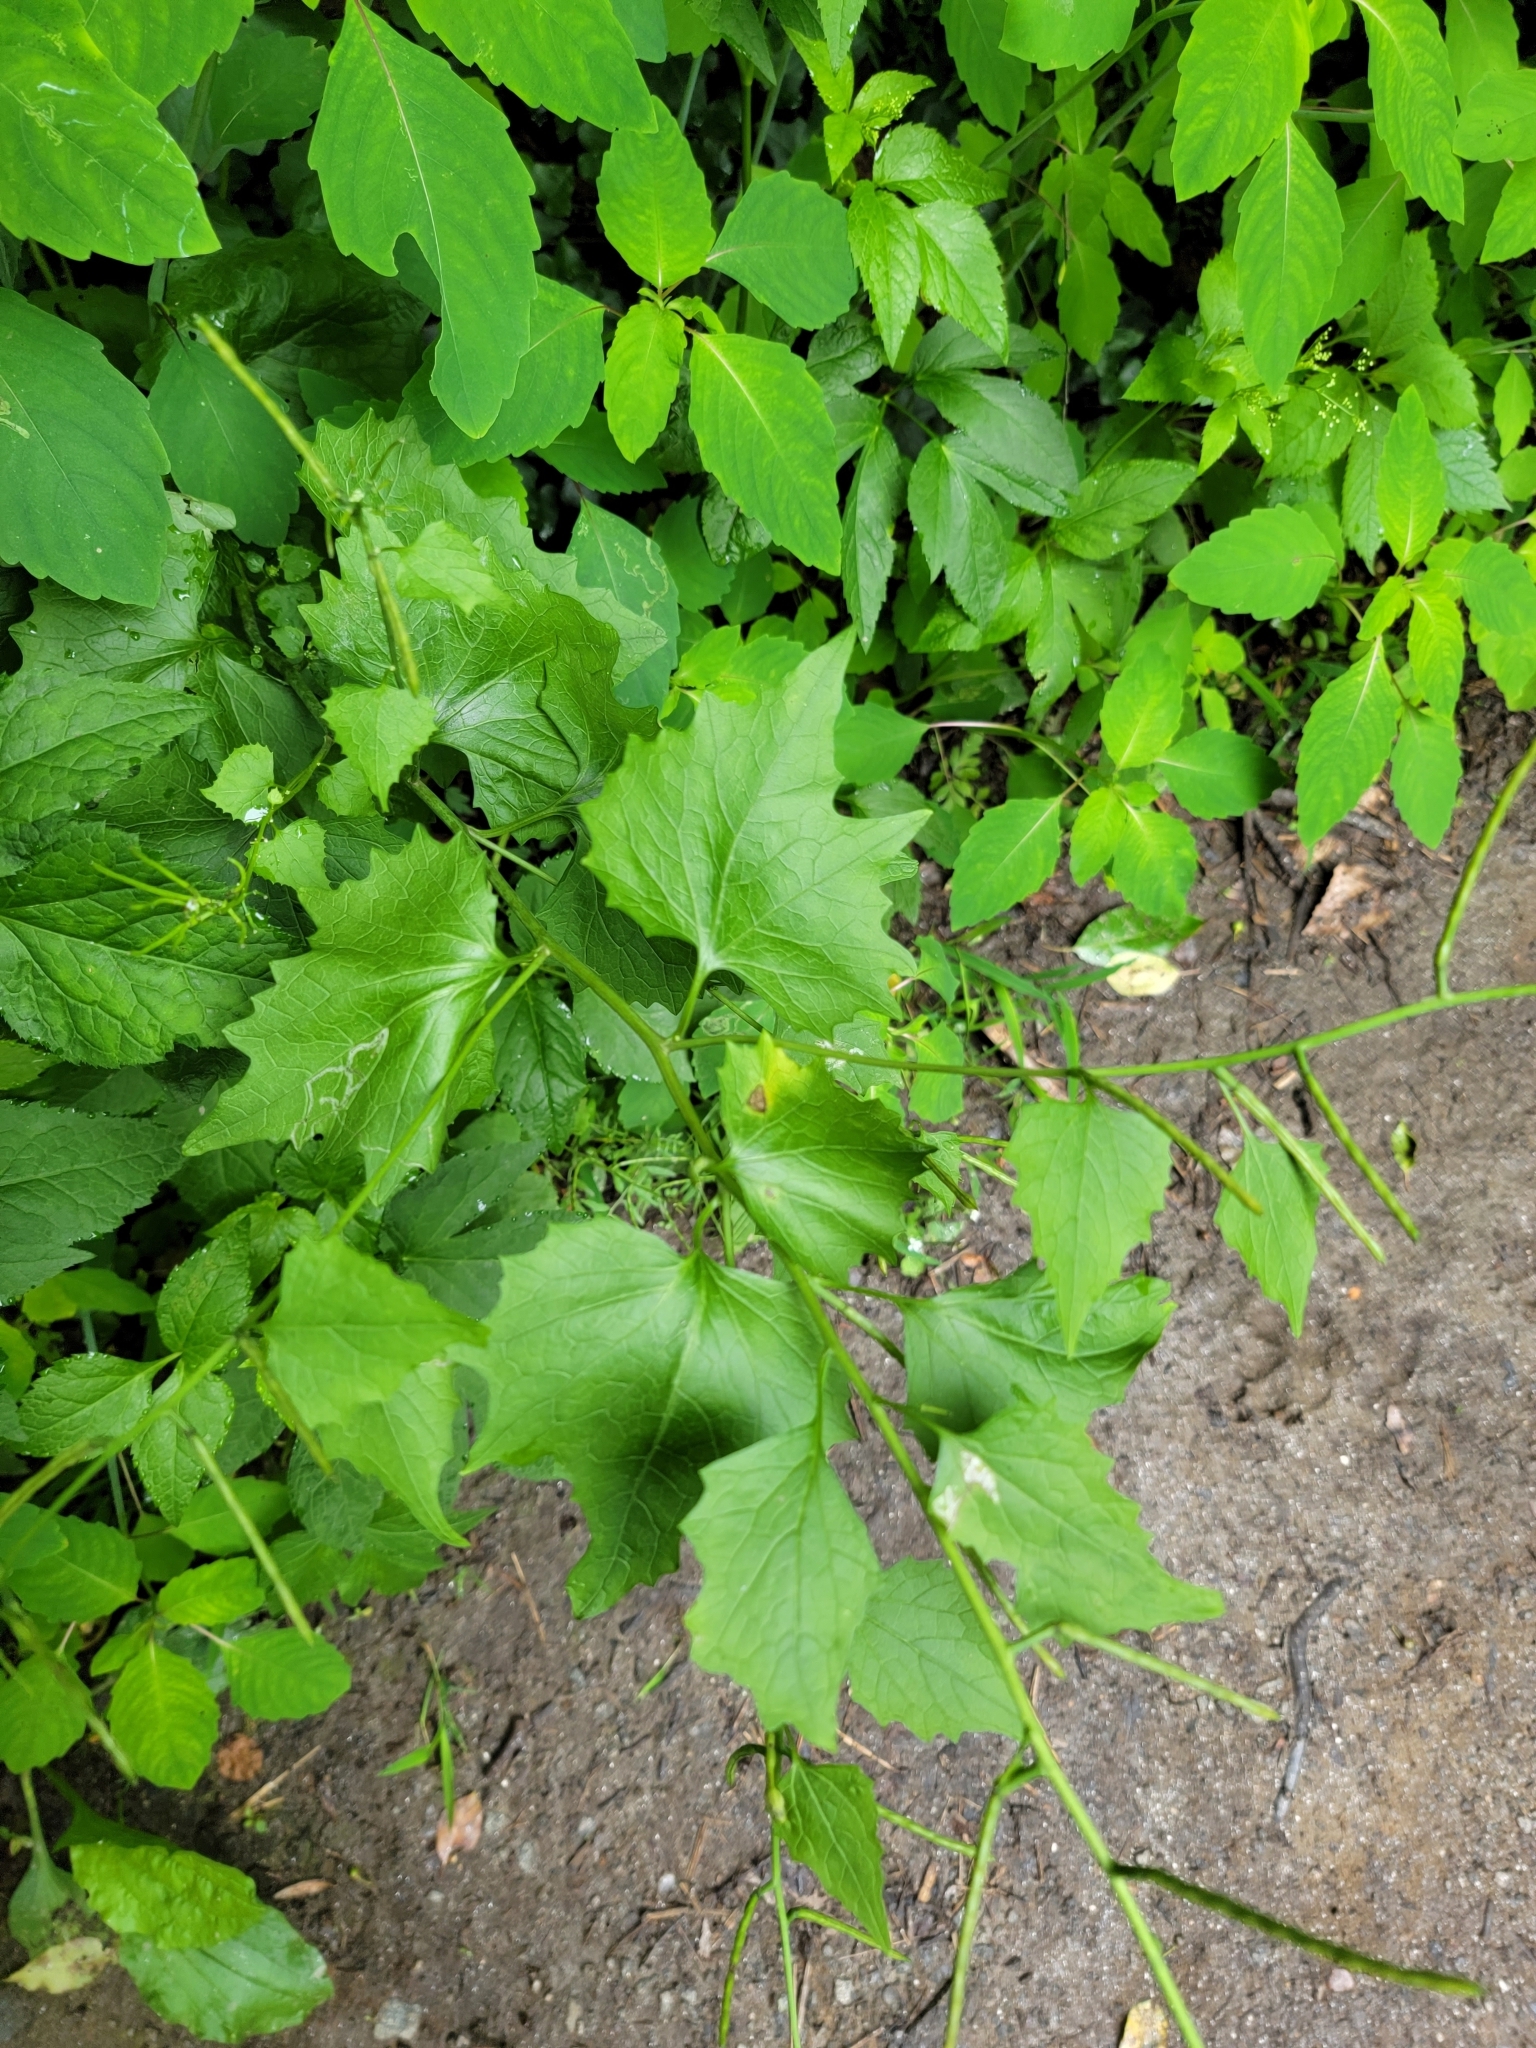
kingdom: Plantae
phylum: Tracheophyta
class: Magnoliopsida
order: Brassicales
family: Brassicaceae
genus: Alliaria
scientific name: Alliaria petiolata
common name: Garlic mustard
